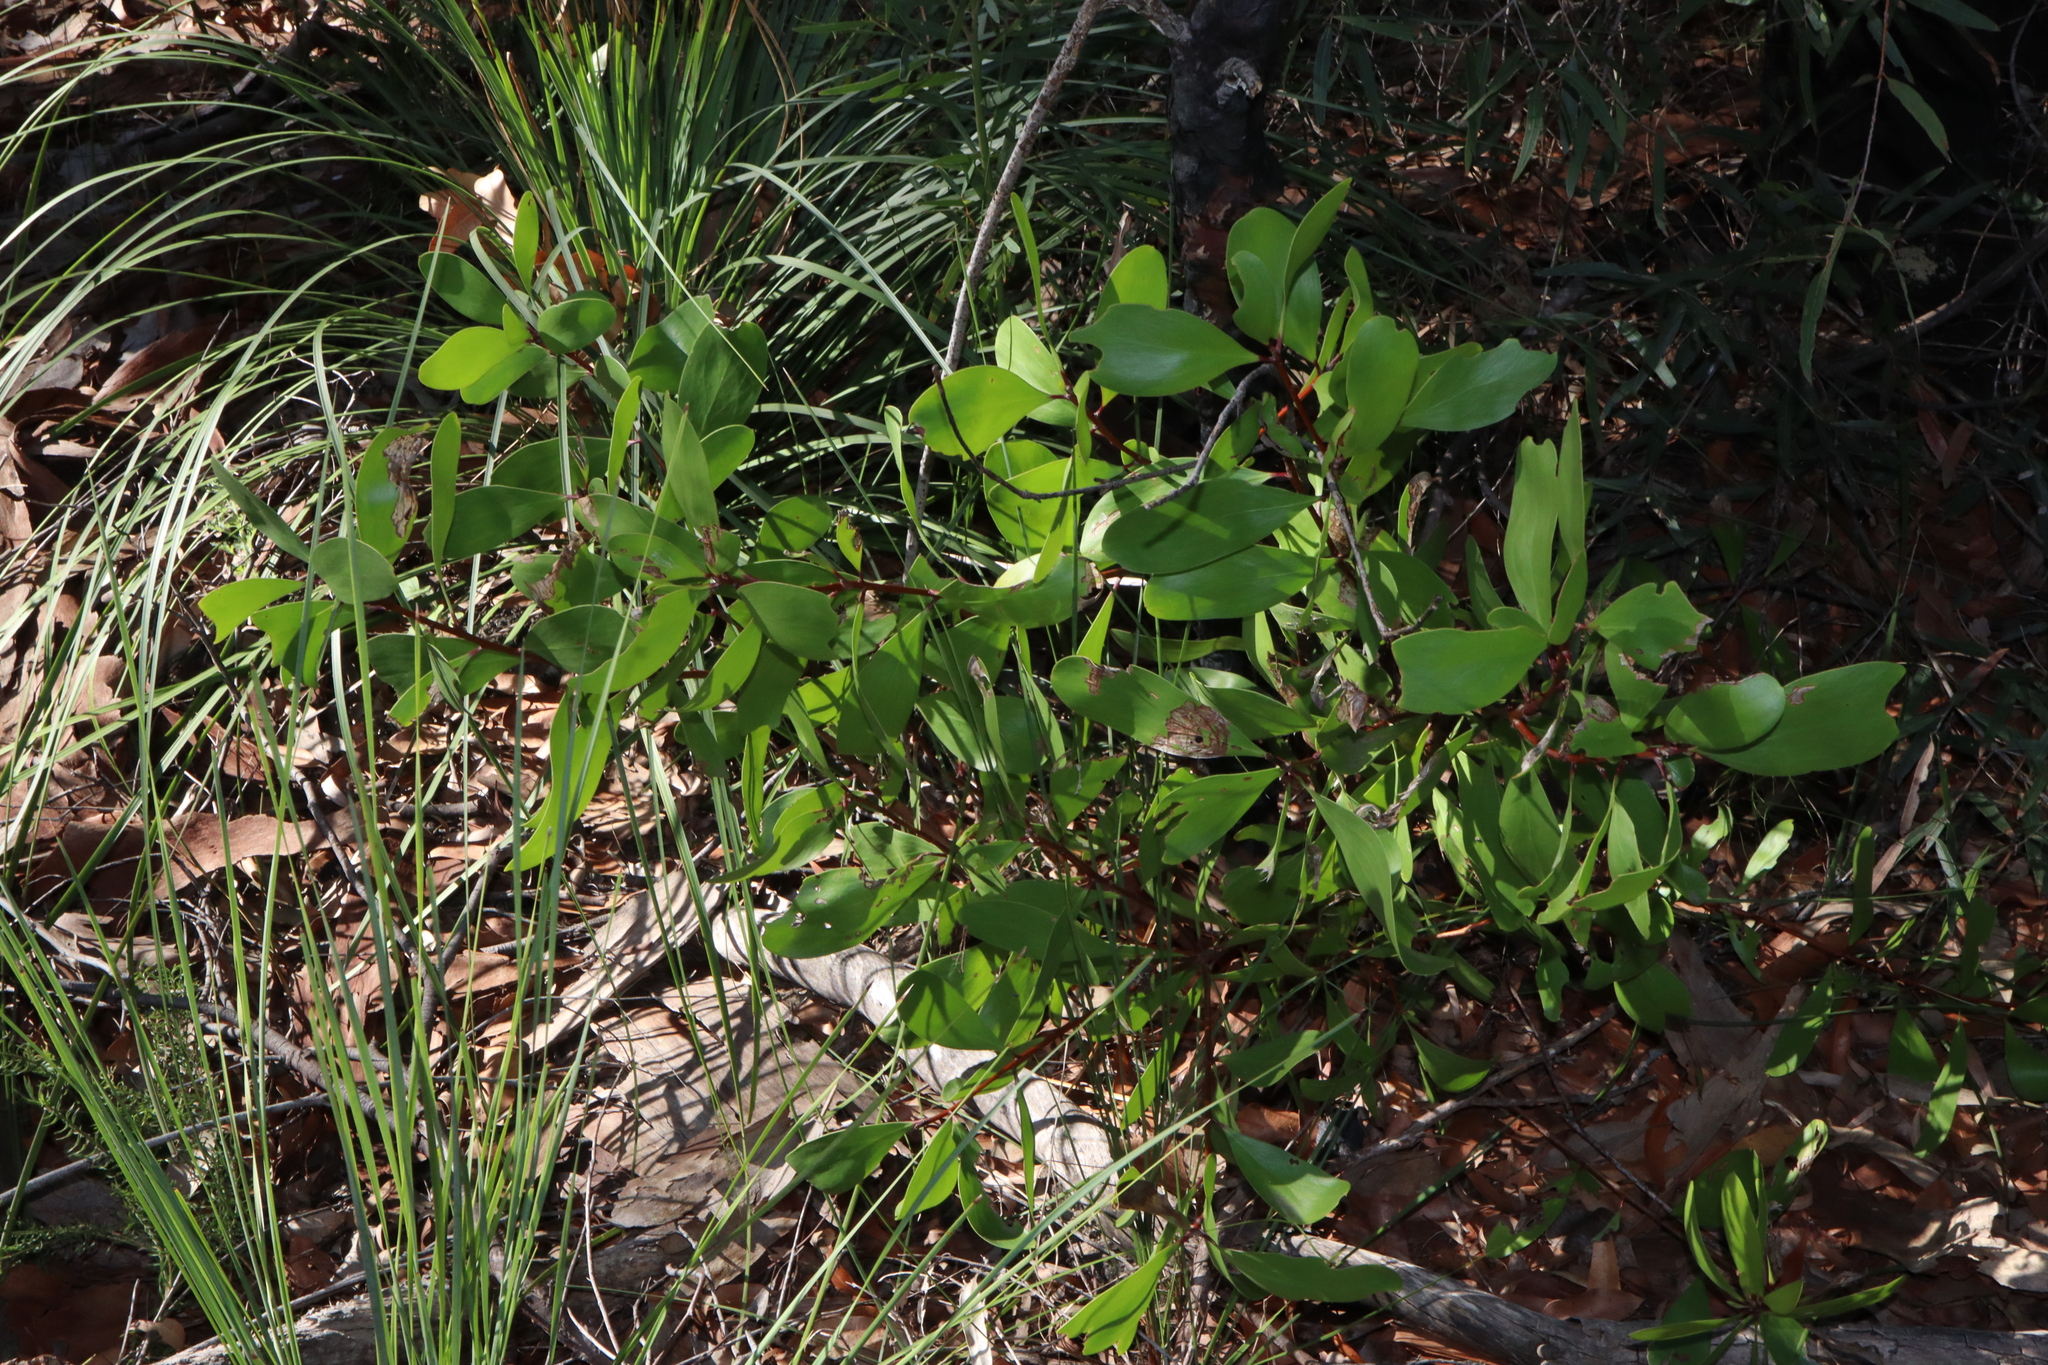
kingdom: Plantae
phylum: Tracheophyta
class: Magnoliopsida
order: Proteales
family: Proteaceae
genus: Persoonia
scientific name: Persoonia levis
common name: Smooth geebung
